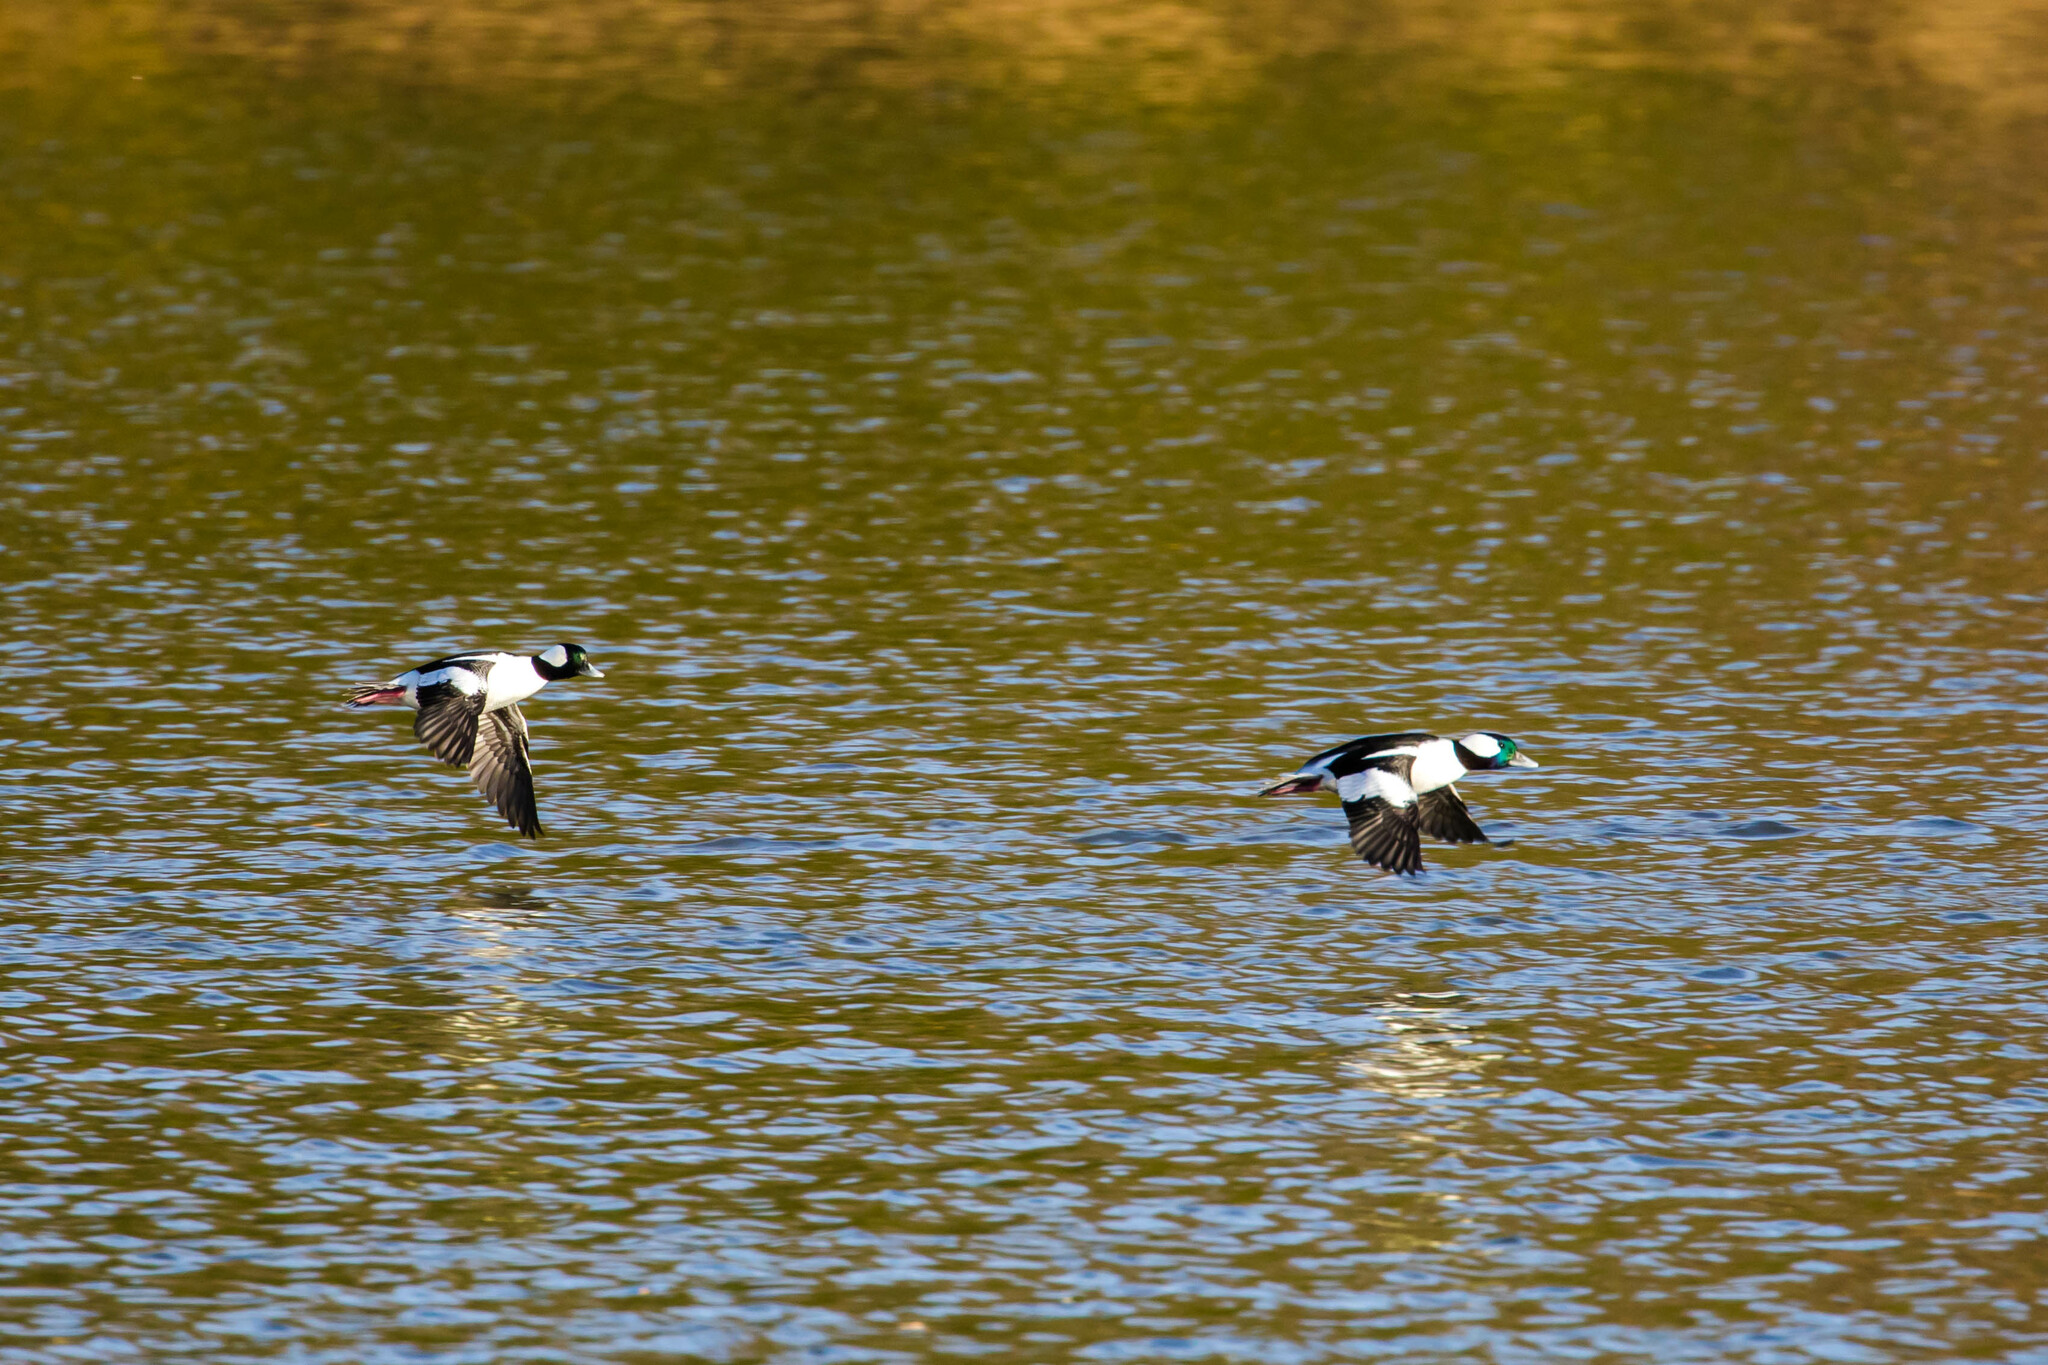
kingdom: Animalia
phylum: Chordata
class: Aves
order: Anseriformes
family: Anatidae
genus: Bucephala
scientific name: Bucephala albeola
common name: Bufflehead
